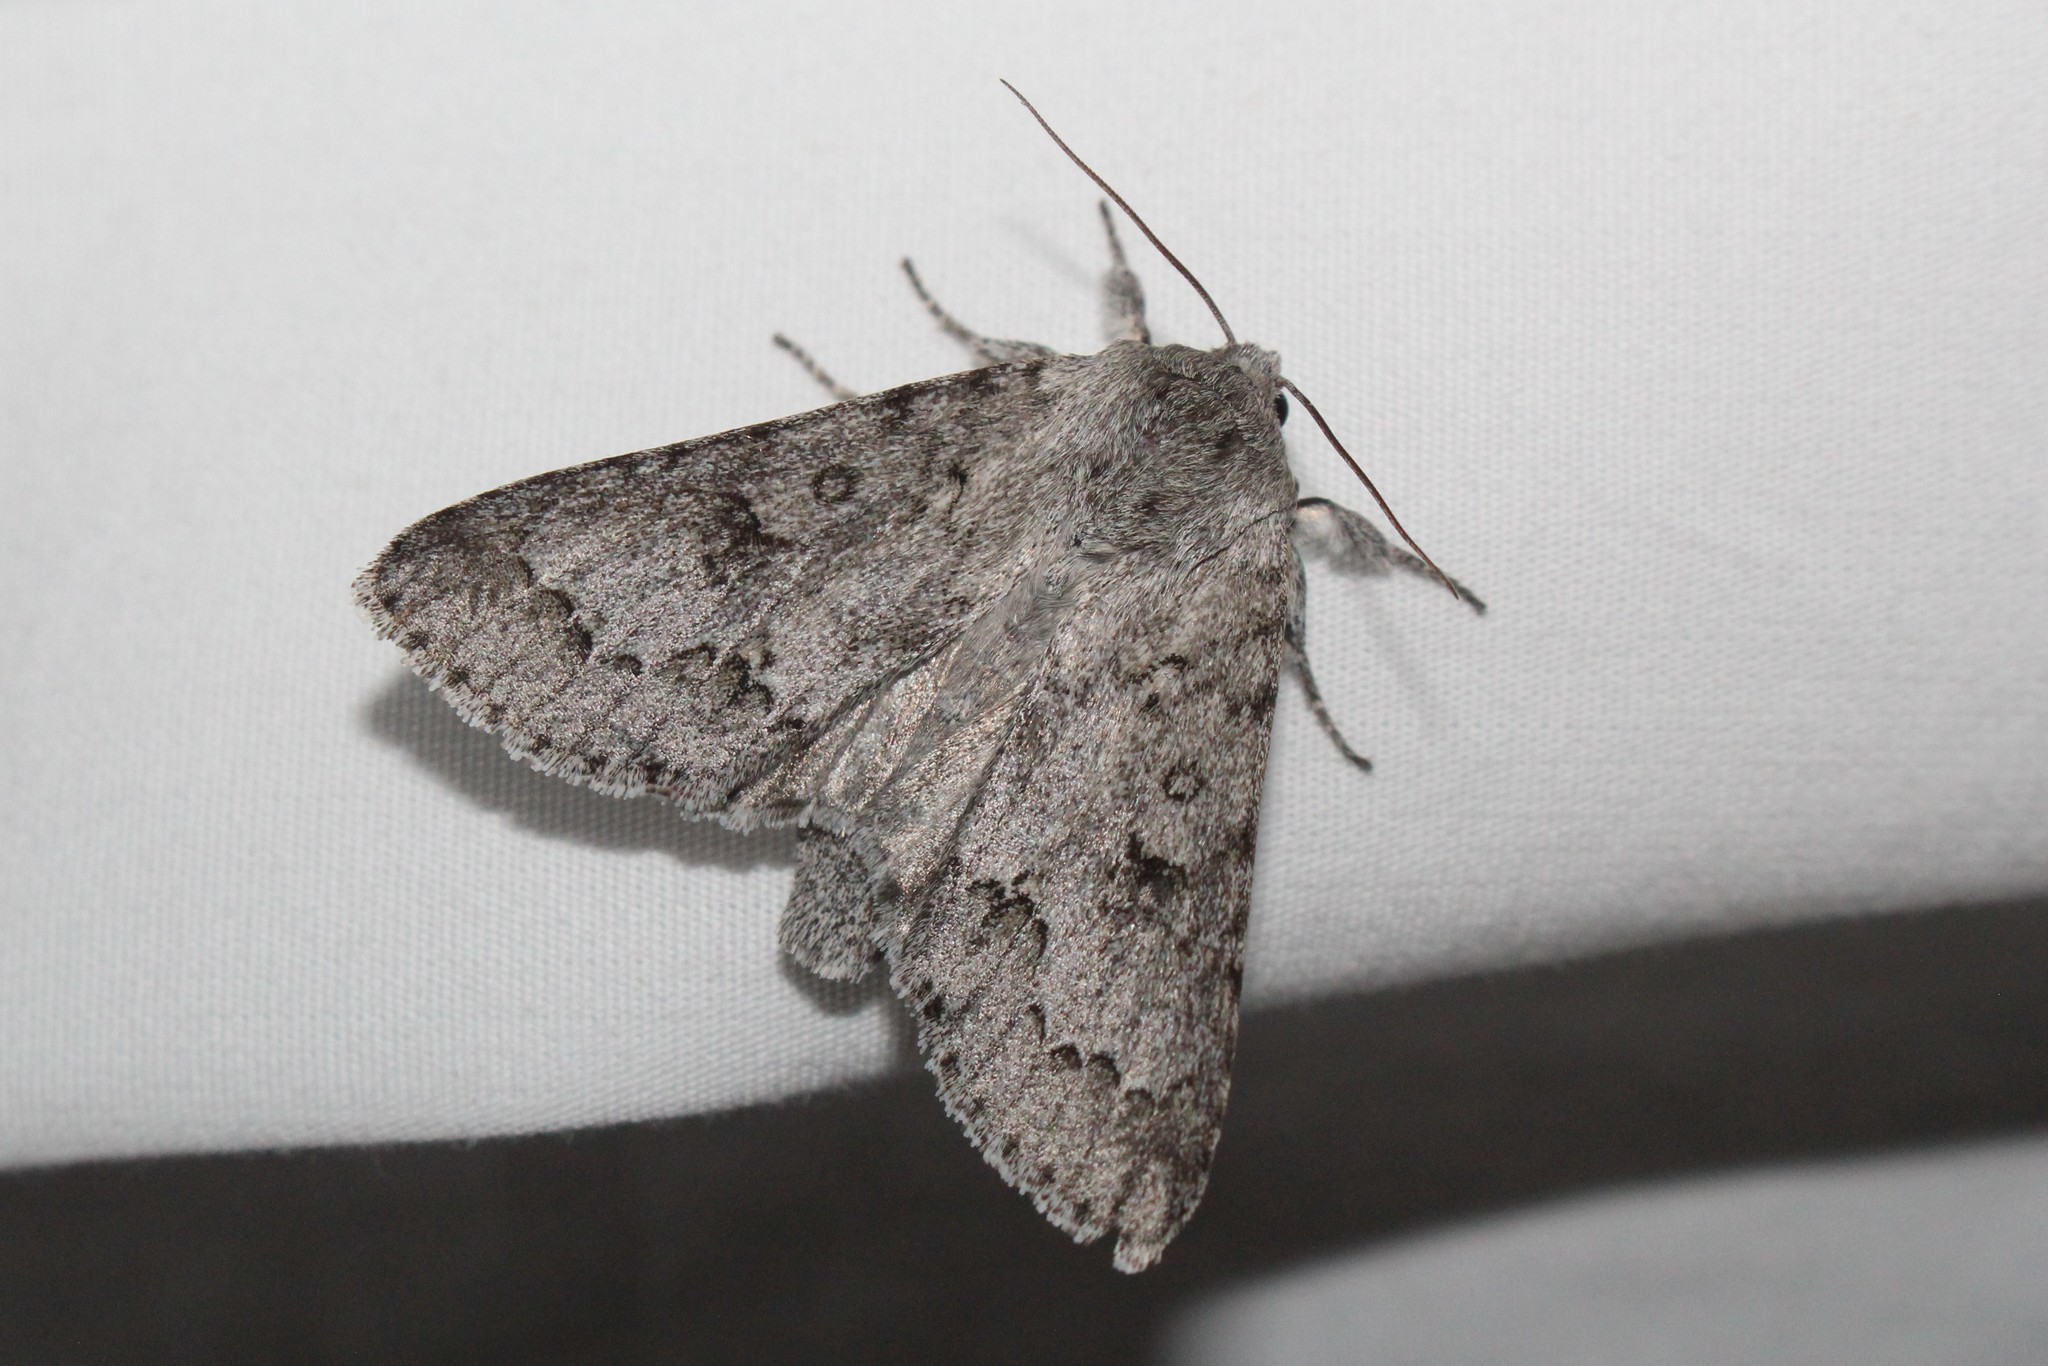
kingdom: Animalia
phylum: Arthropoda
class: Insecta
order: Lepidoptera
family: Noctuidae
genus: Acronicta
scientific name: Acronicta insita
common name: Large gray dagger
